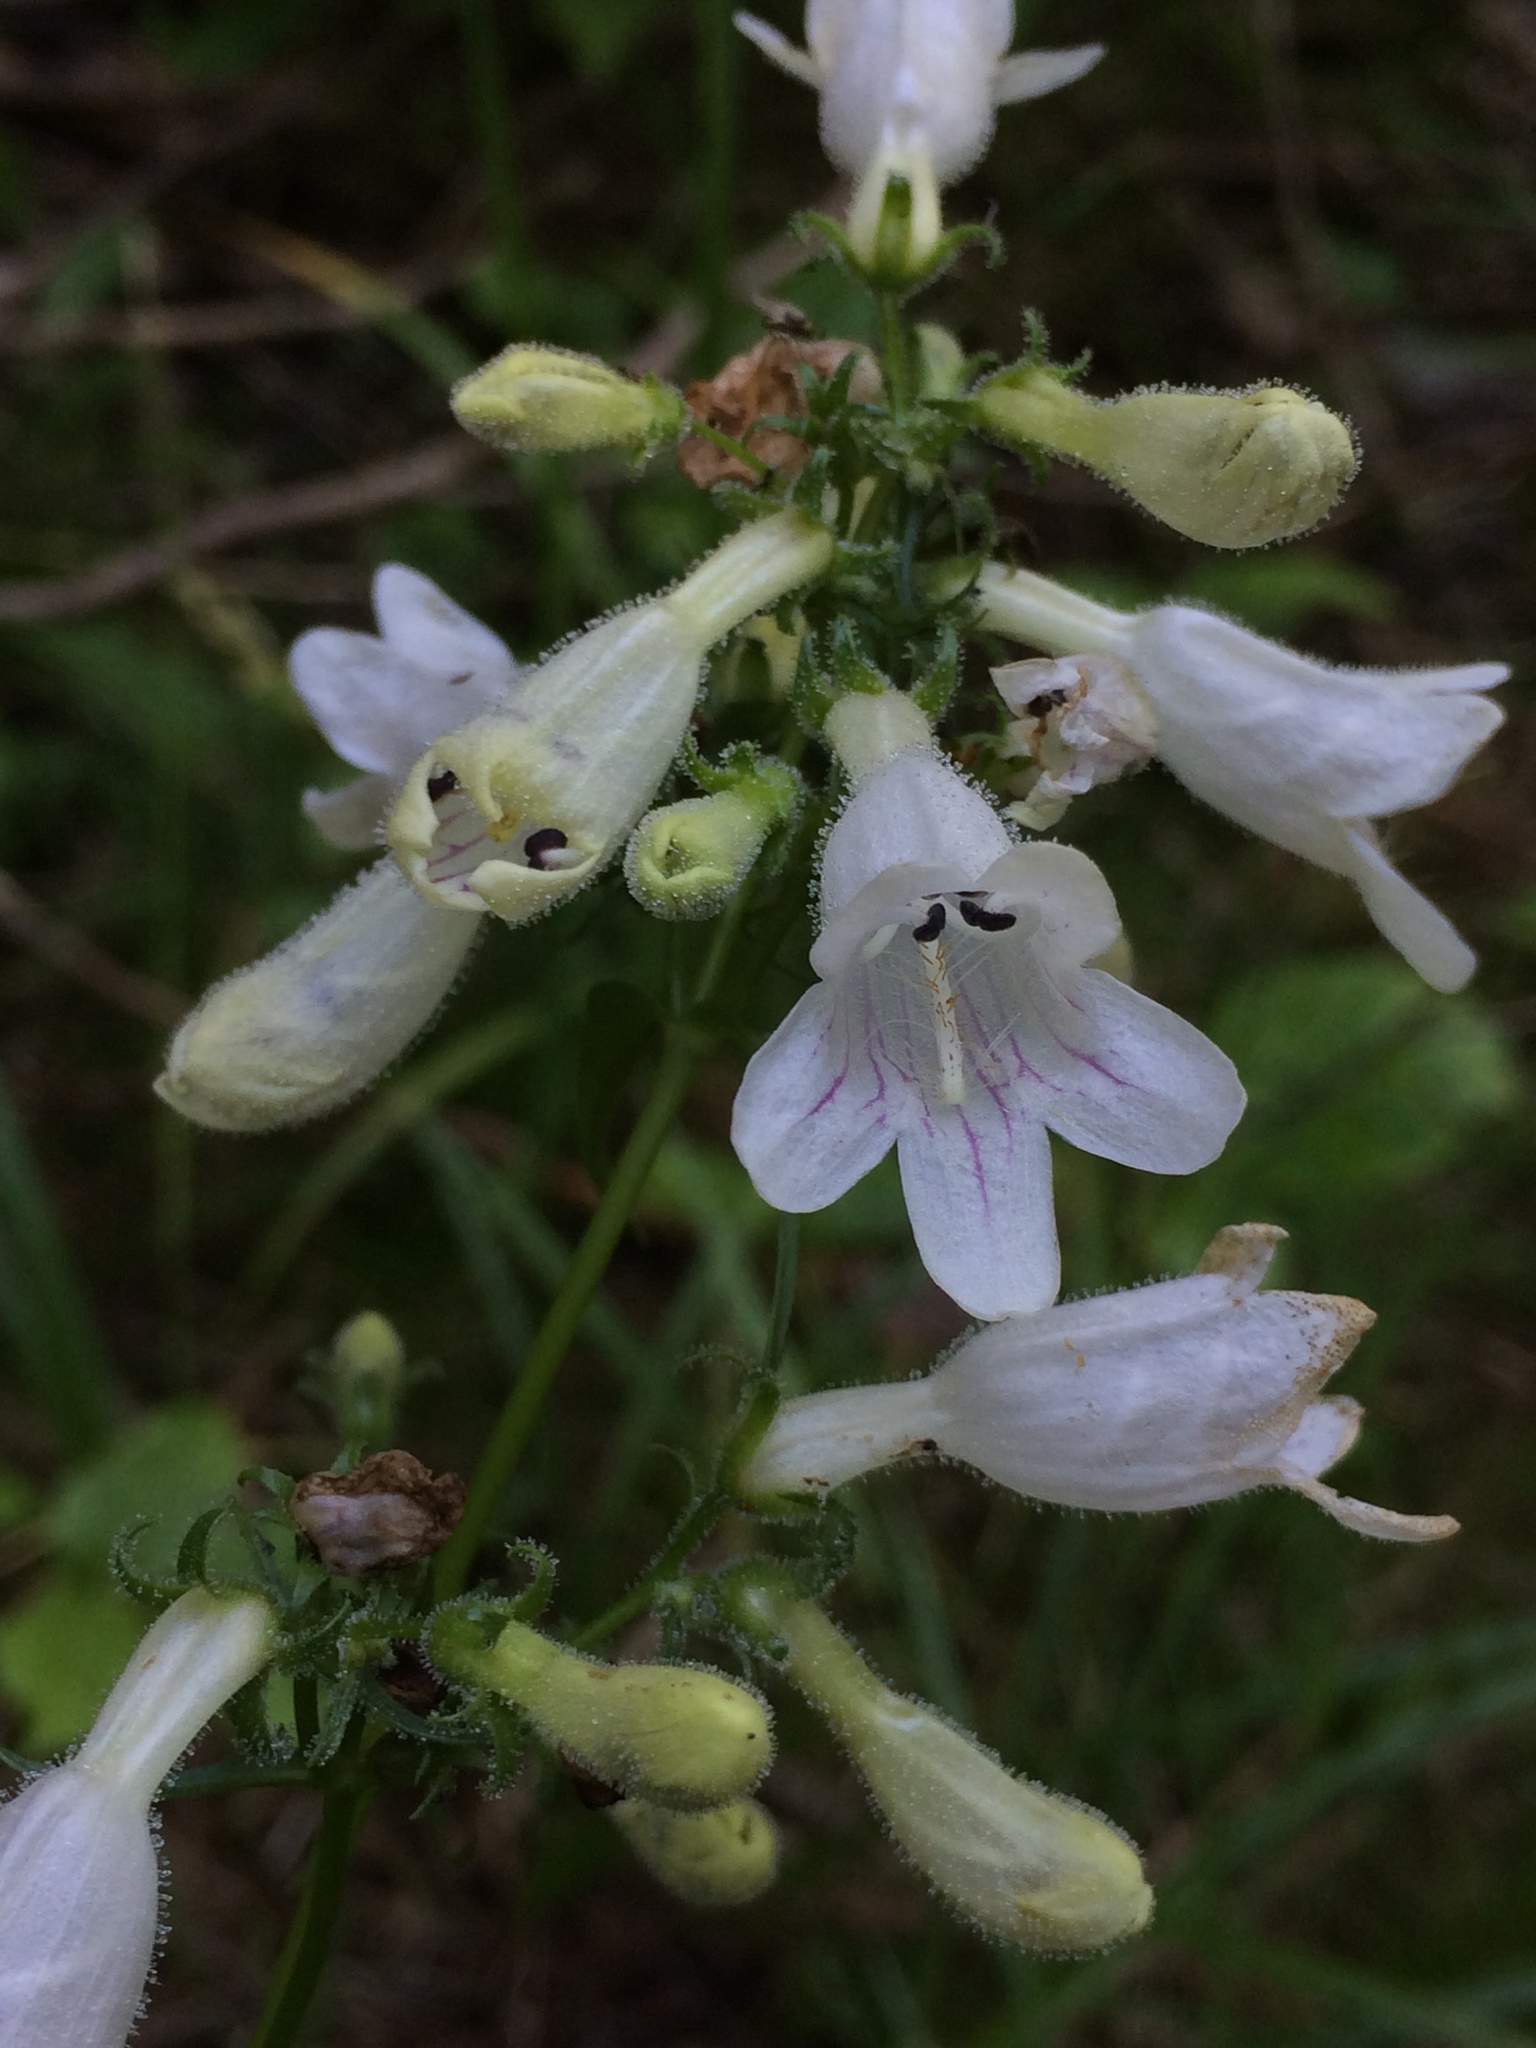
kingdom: Plantae
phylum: Tracheophyta
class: Magnoliopsida
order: Lamiales
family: Plantaginaceae
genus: Penstemon
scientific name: Penstemon digitalis
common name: Foxglove beardtongue
